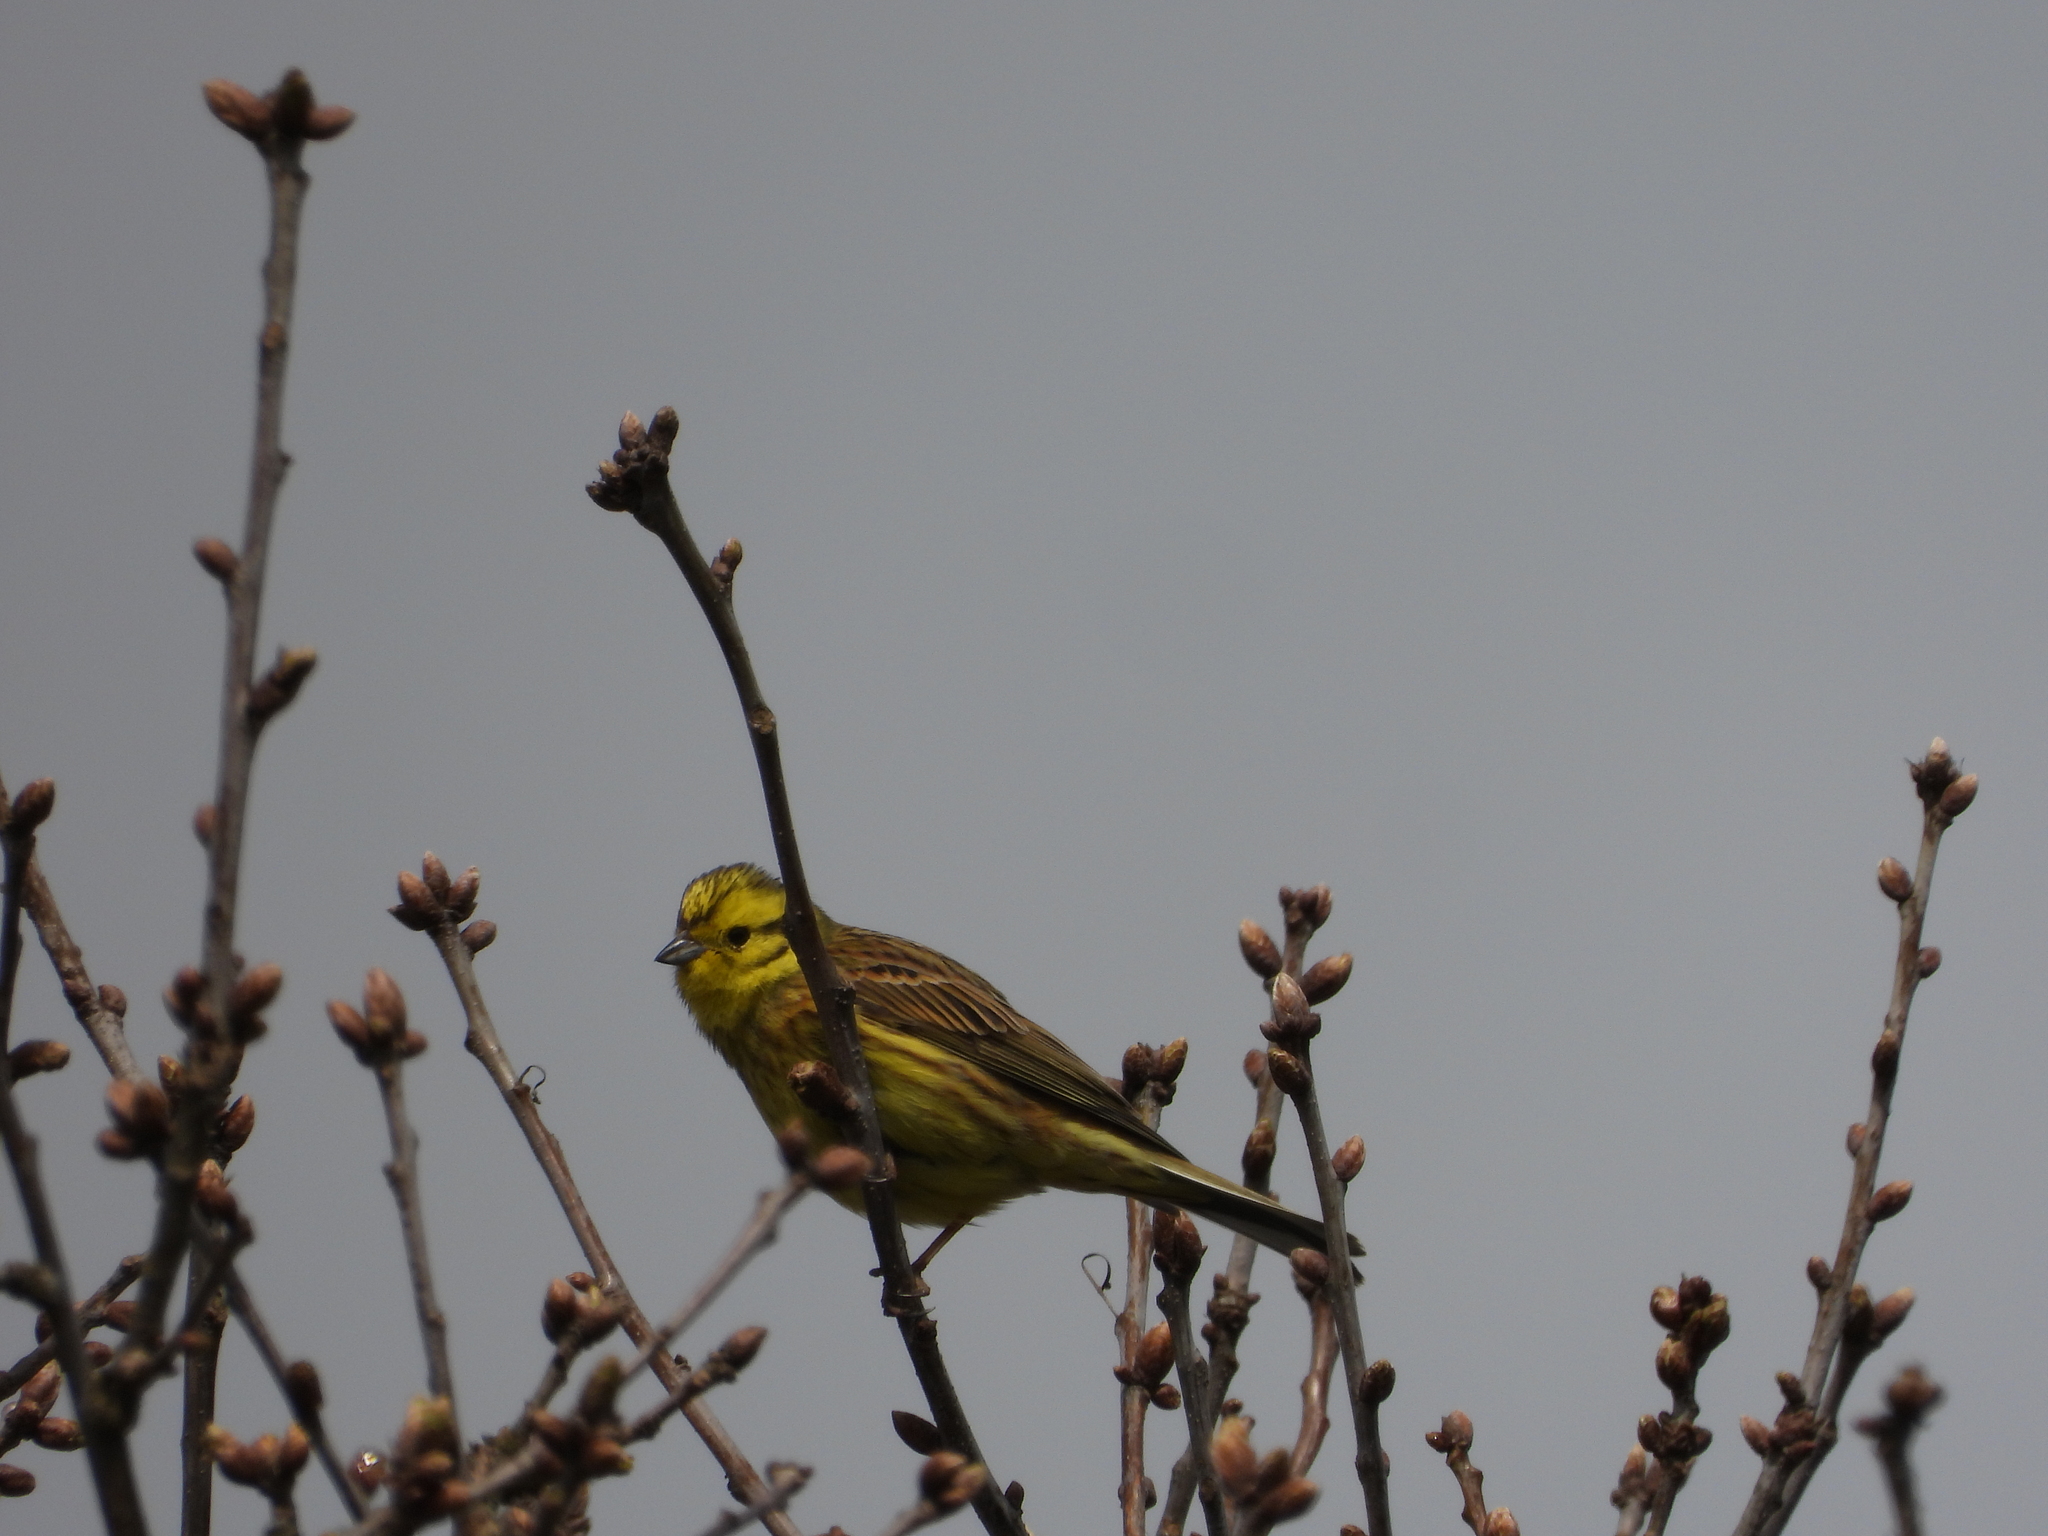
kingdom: Animalia
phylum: Chordata
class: Aves
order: Passeriformes
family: Emberizidae
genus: Emberiza
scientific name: Emberiza citrinella
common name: Yellowhammer
